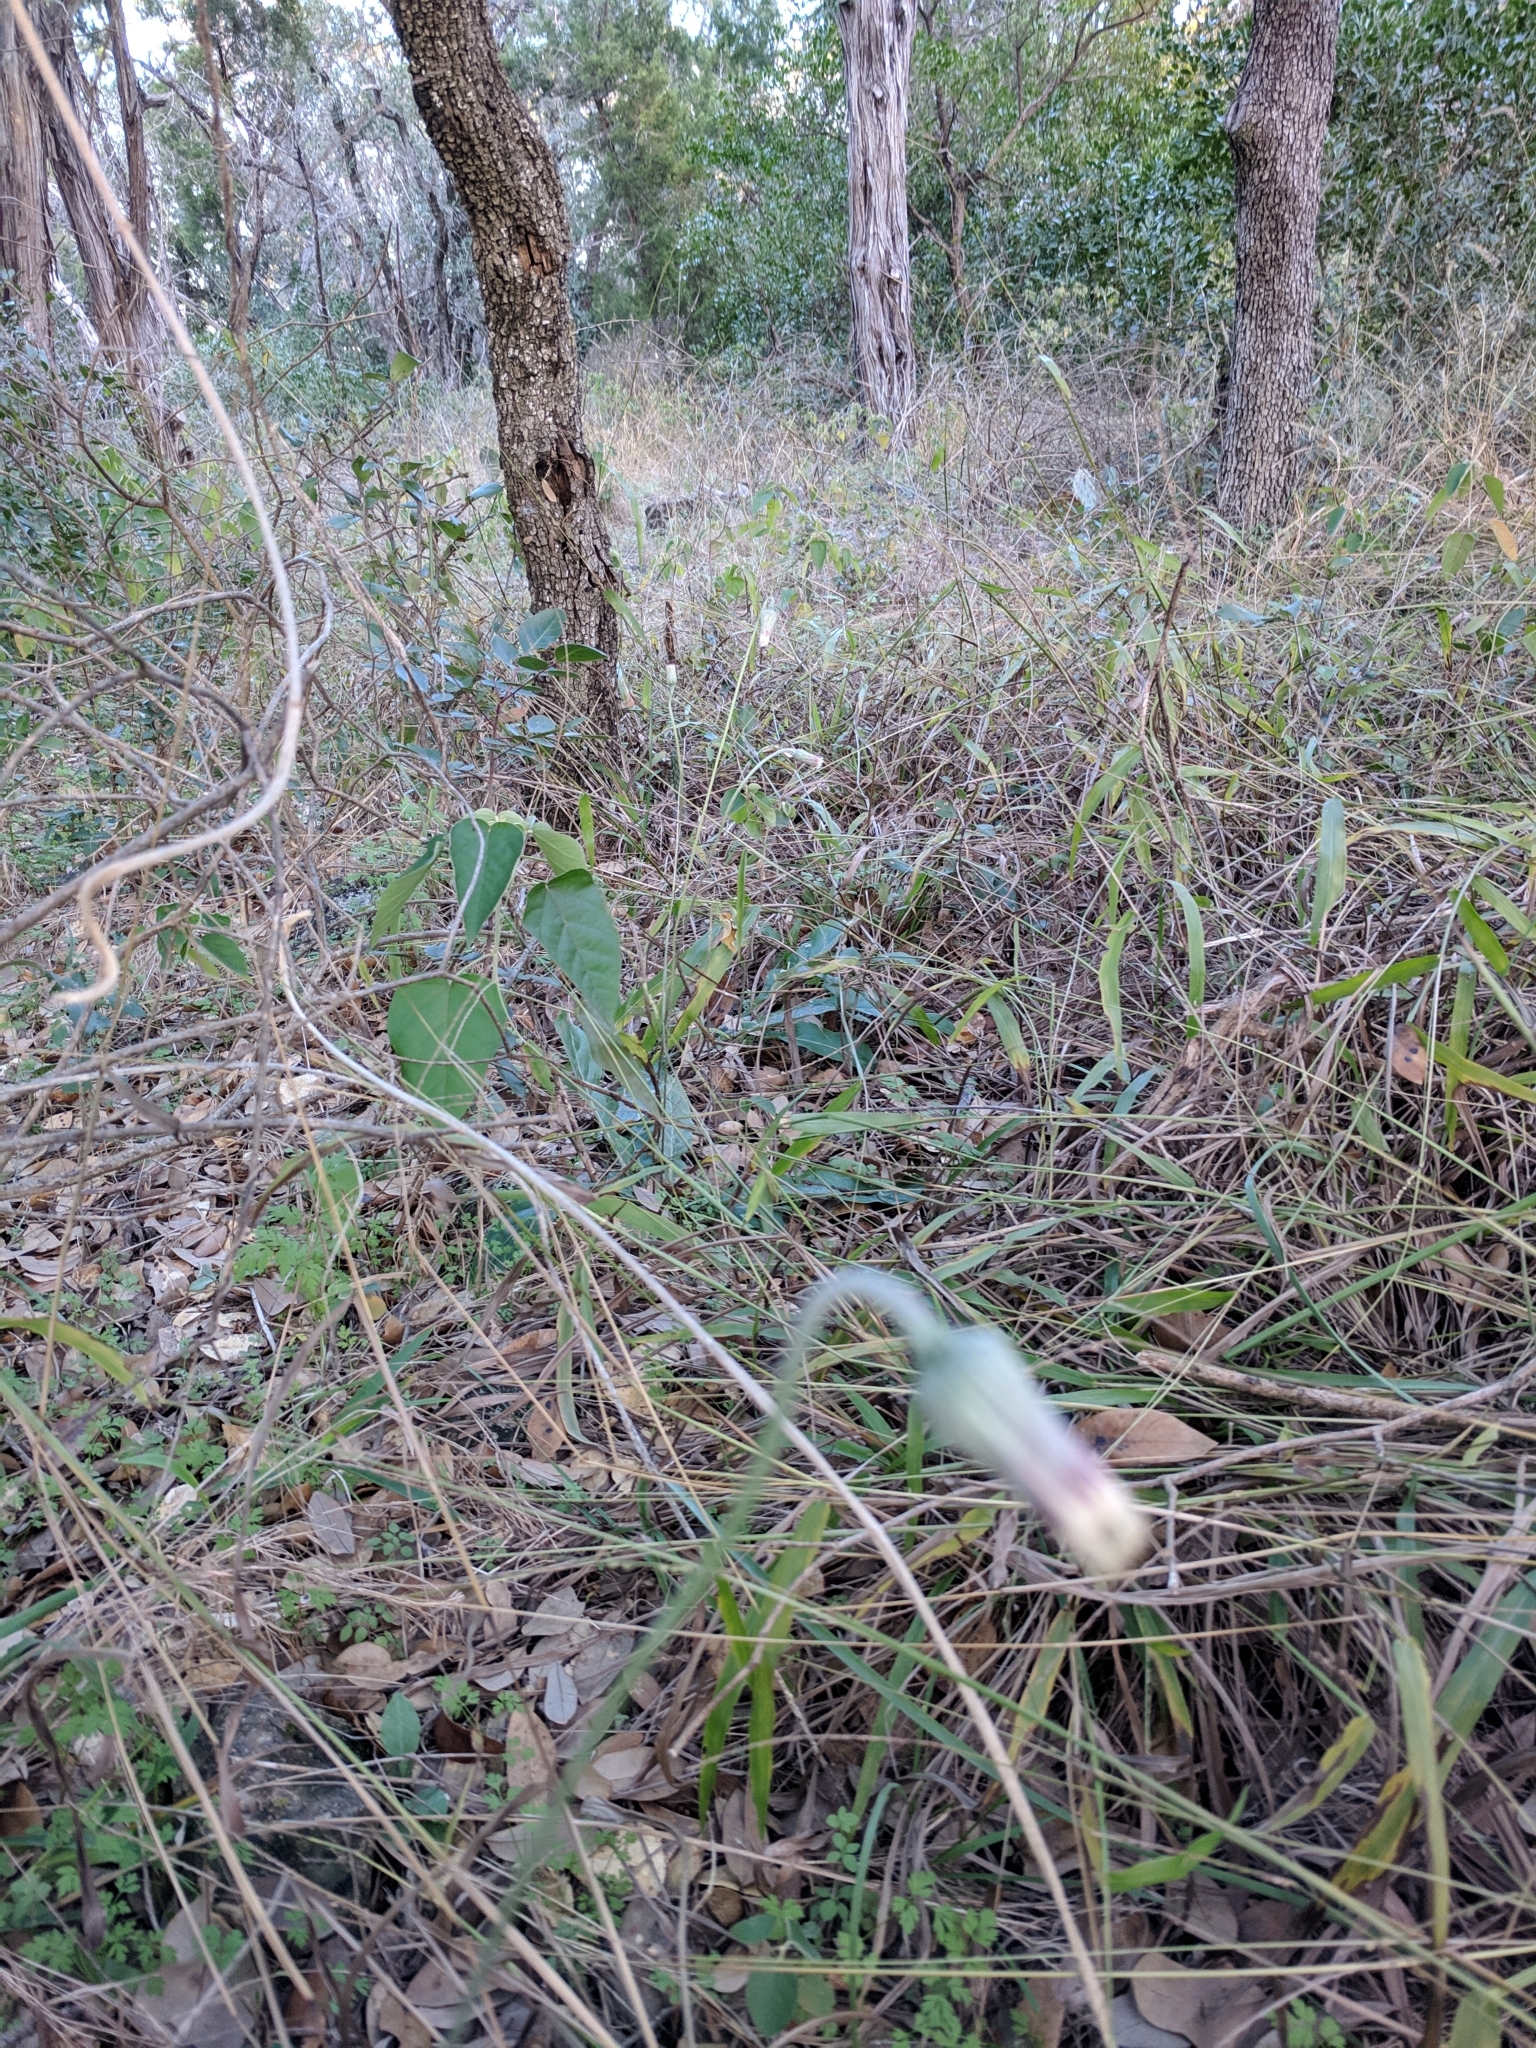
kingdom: Plantae
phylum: Tracheophyta
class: Magnoliopsida
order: Asterales
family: Asteraceae
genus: Chaptalia
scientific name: Chaptalia texana
